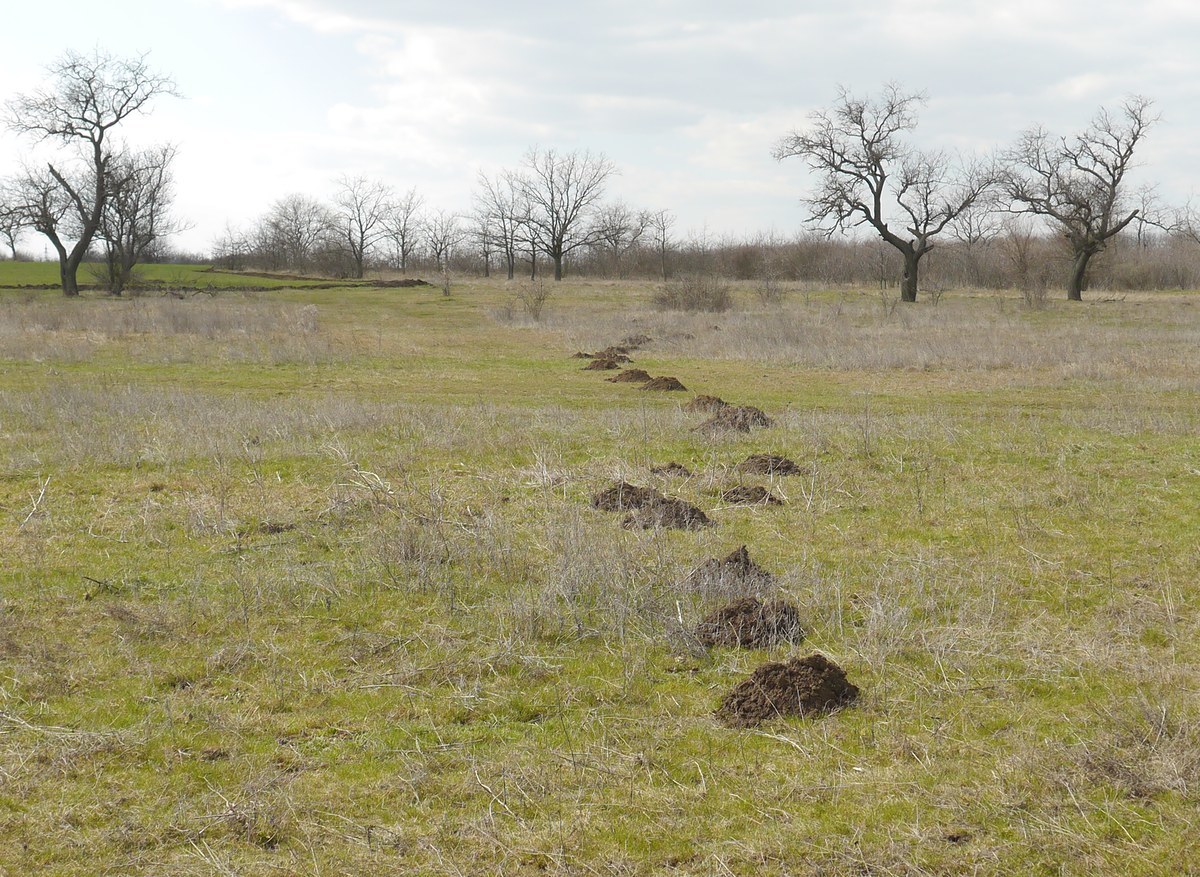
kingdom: Animalia
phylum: Chordata
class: Mammalia
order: Rodentia
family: Spalacidae
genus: Spalax
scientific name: Spalax zemni
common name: Podolsk blind mole rat
